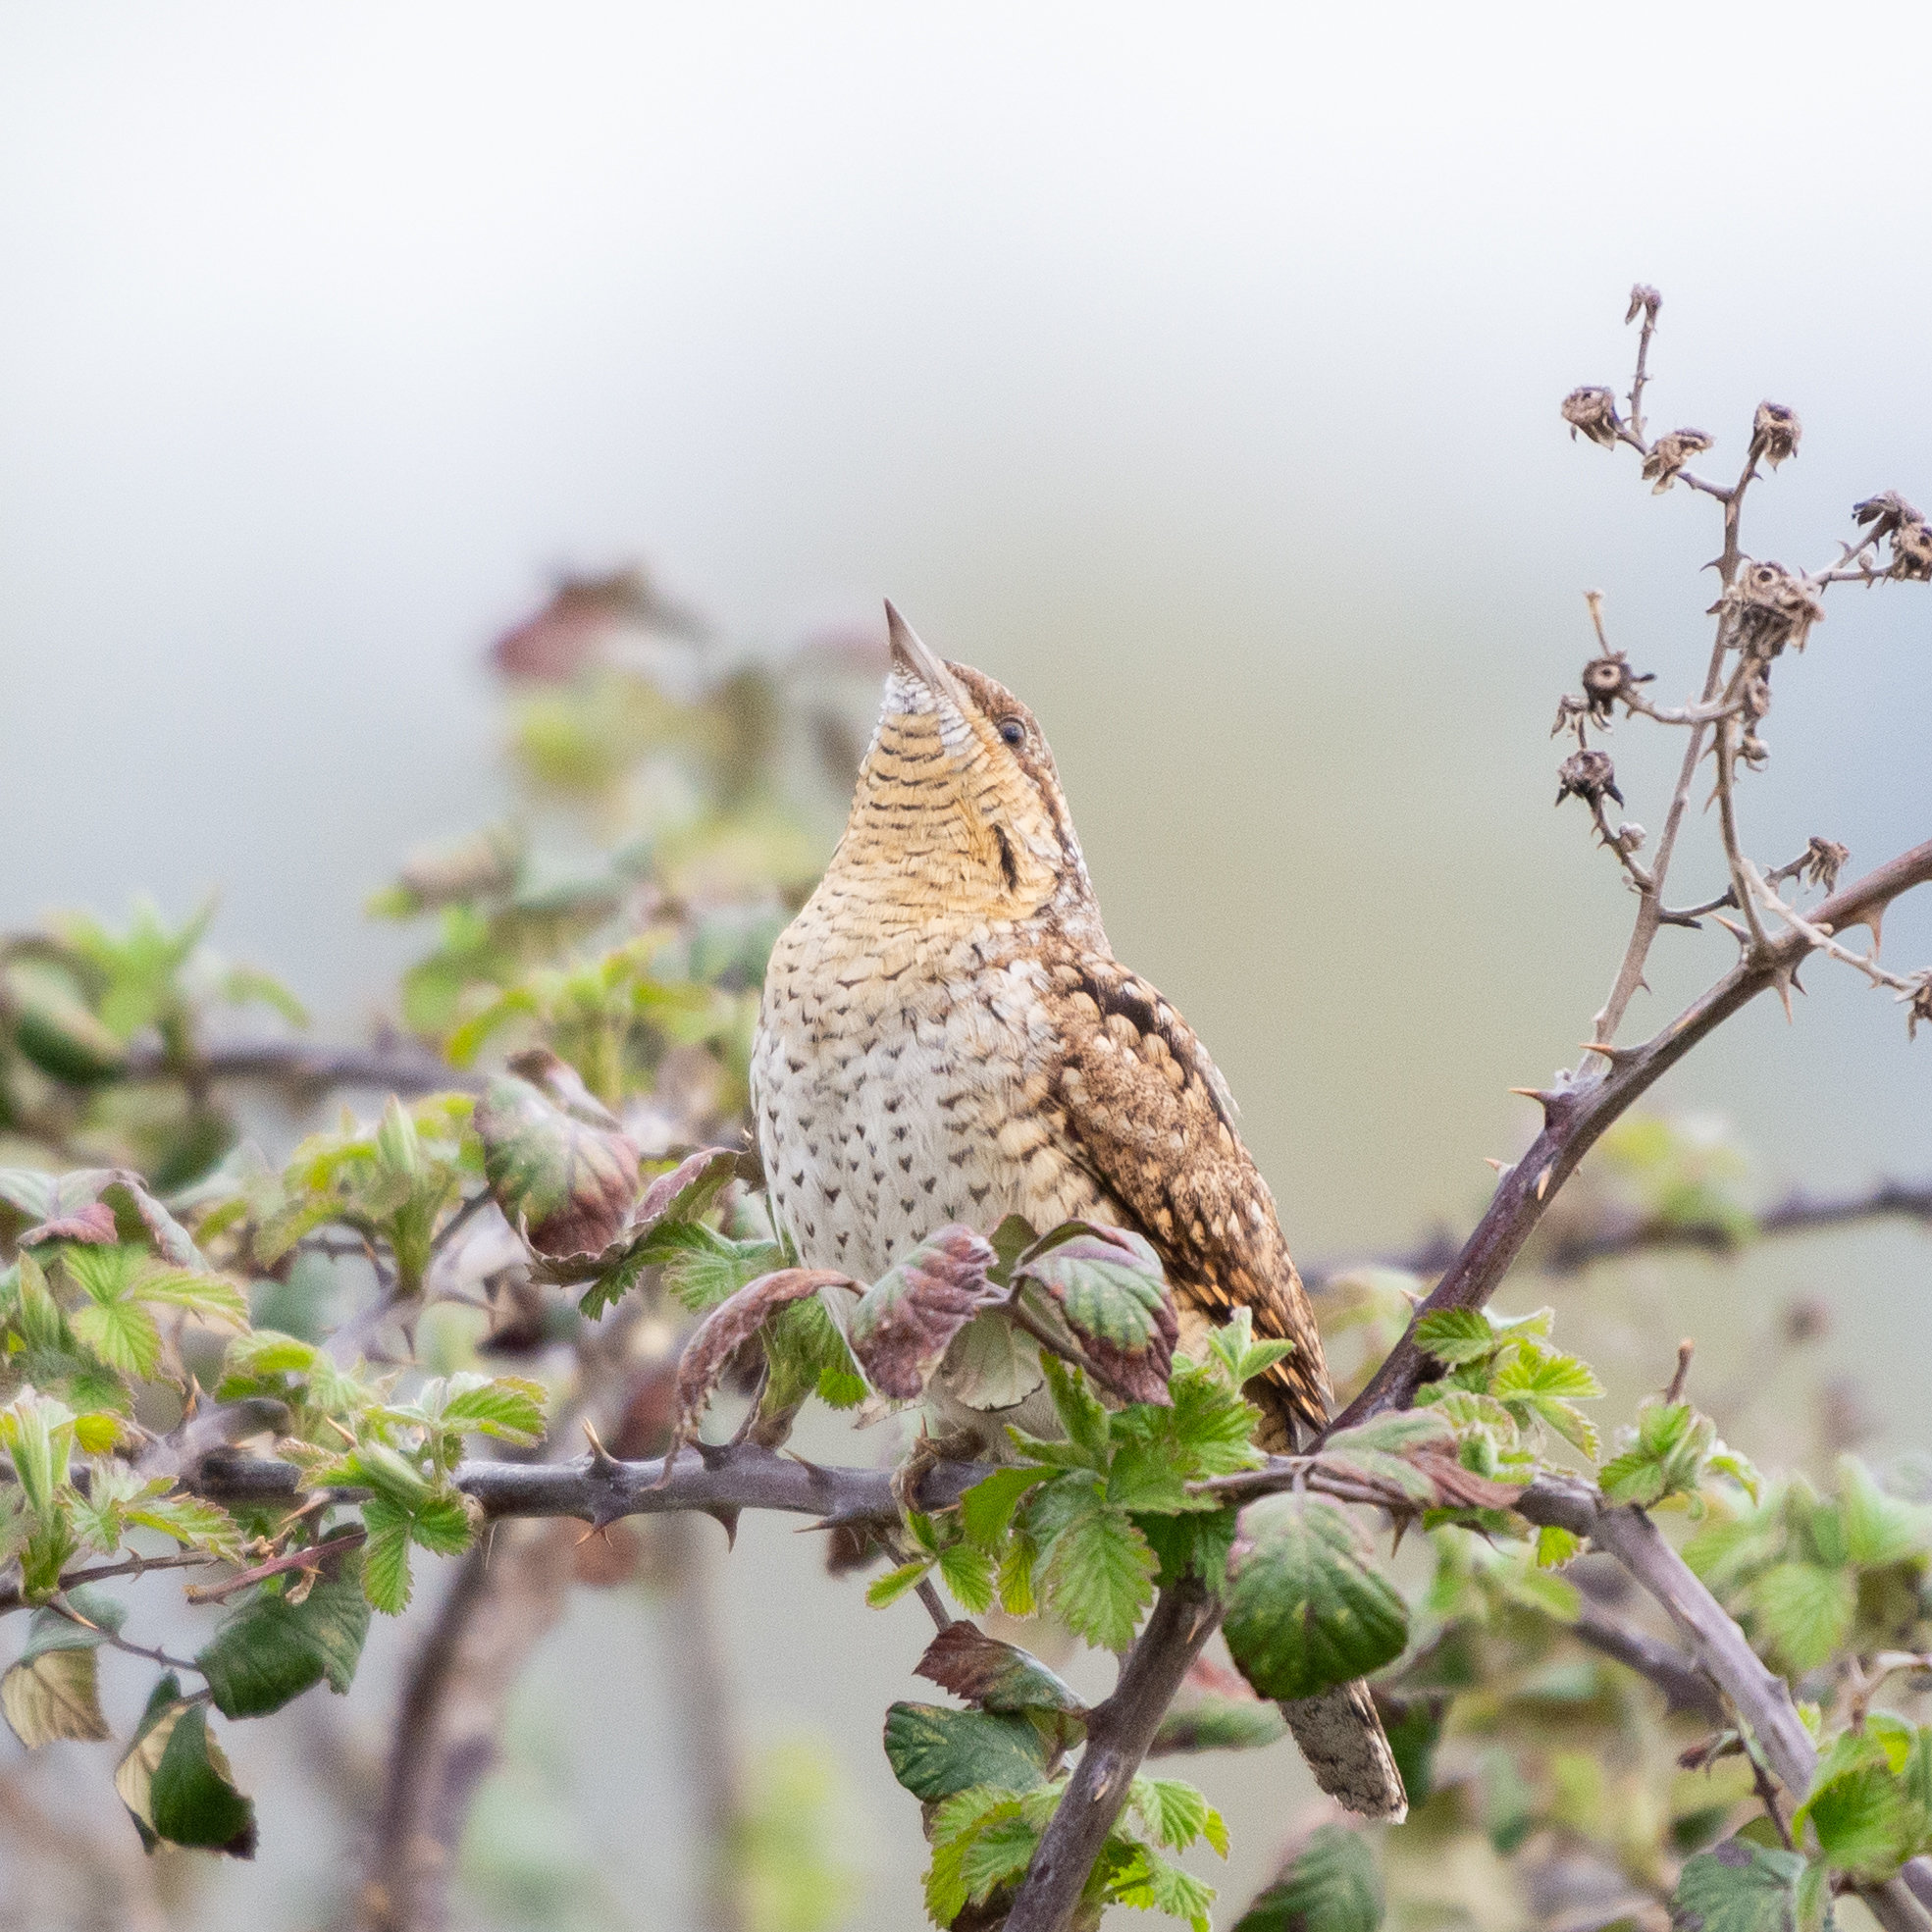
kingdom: Animalia
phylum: Chordata
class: Aves
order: Piciformes
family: Picidae
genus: Jynx
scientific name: Jynx torquilla
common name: Eurasian wryneck
